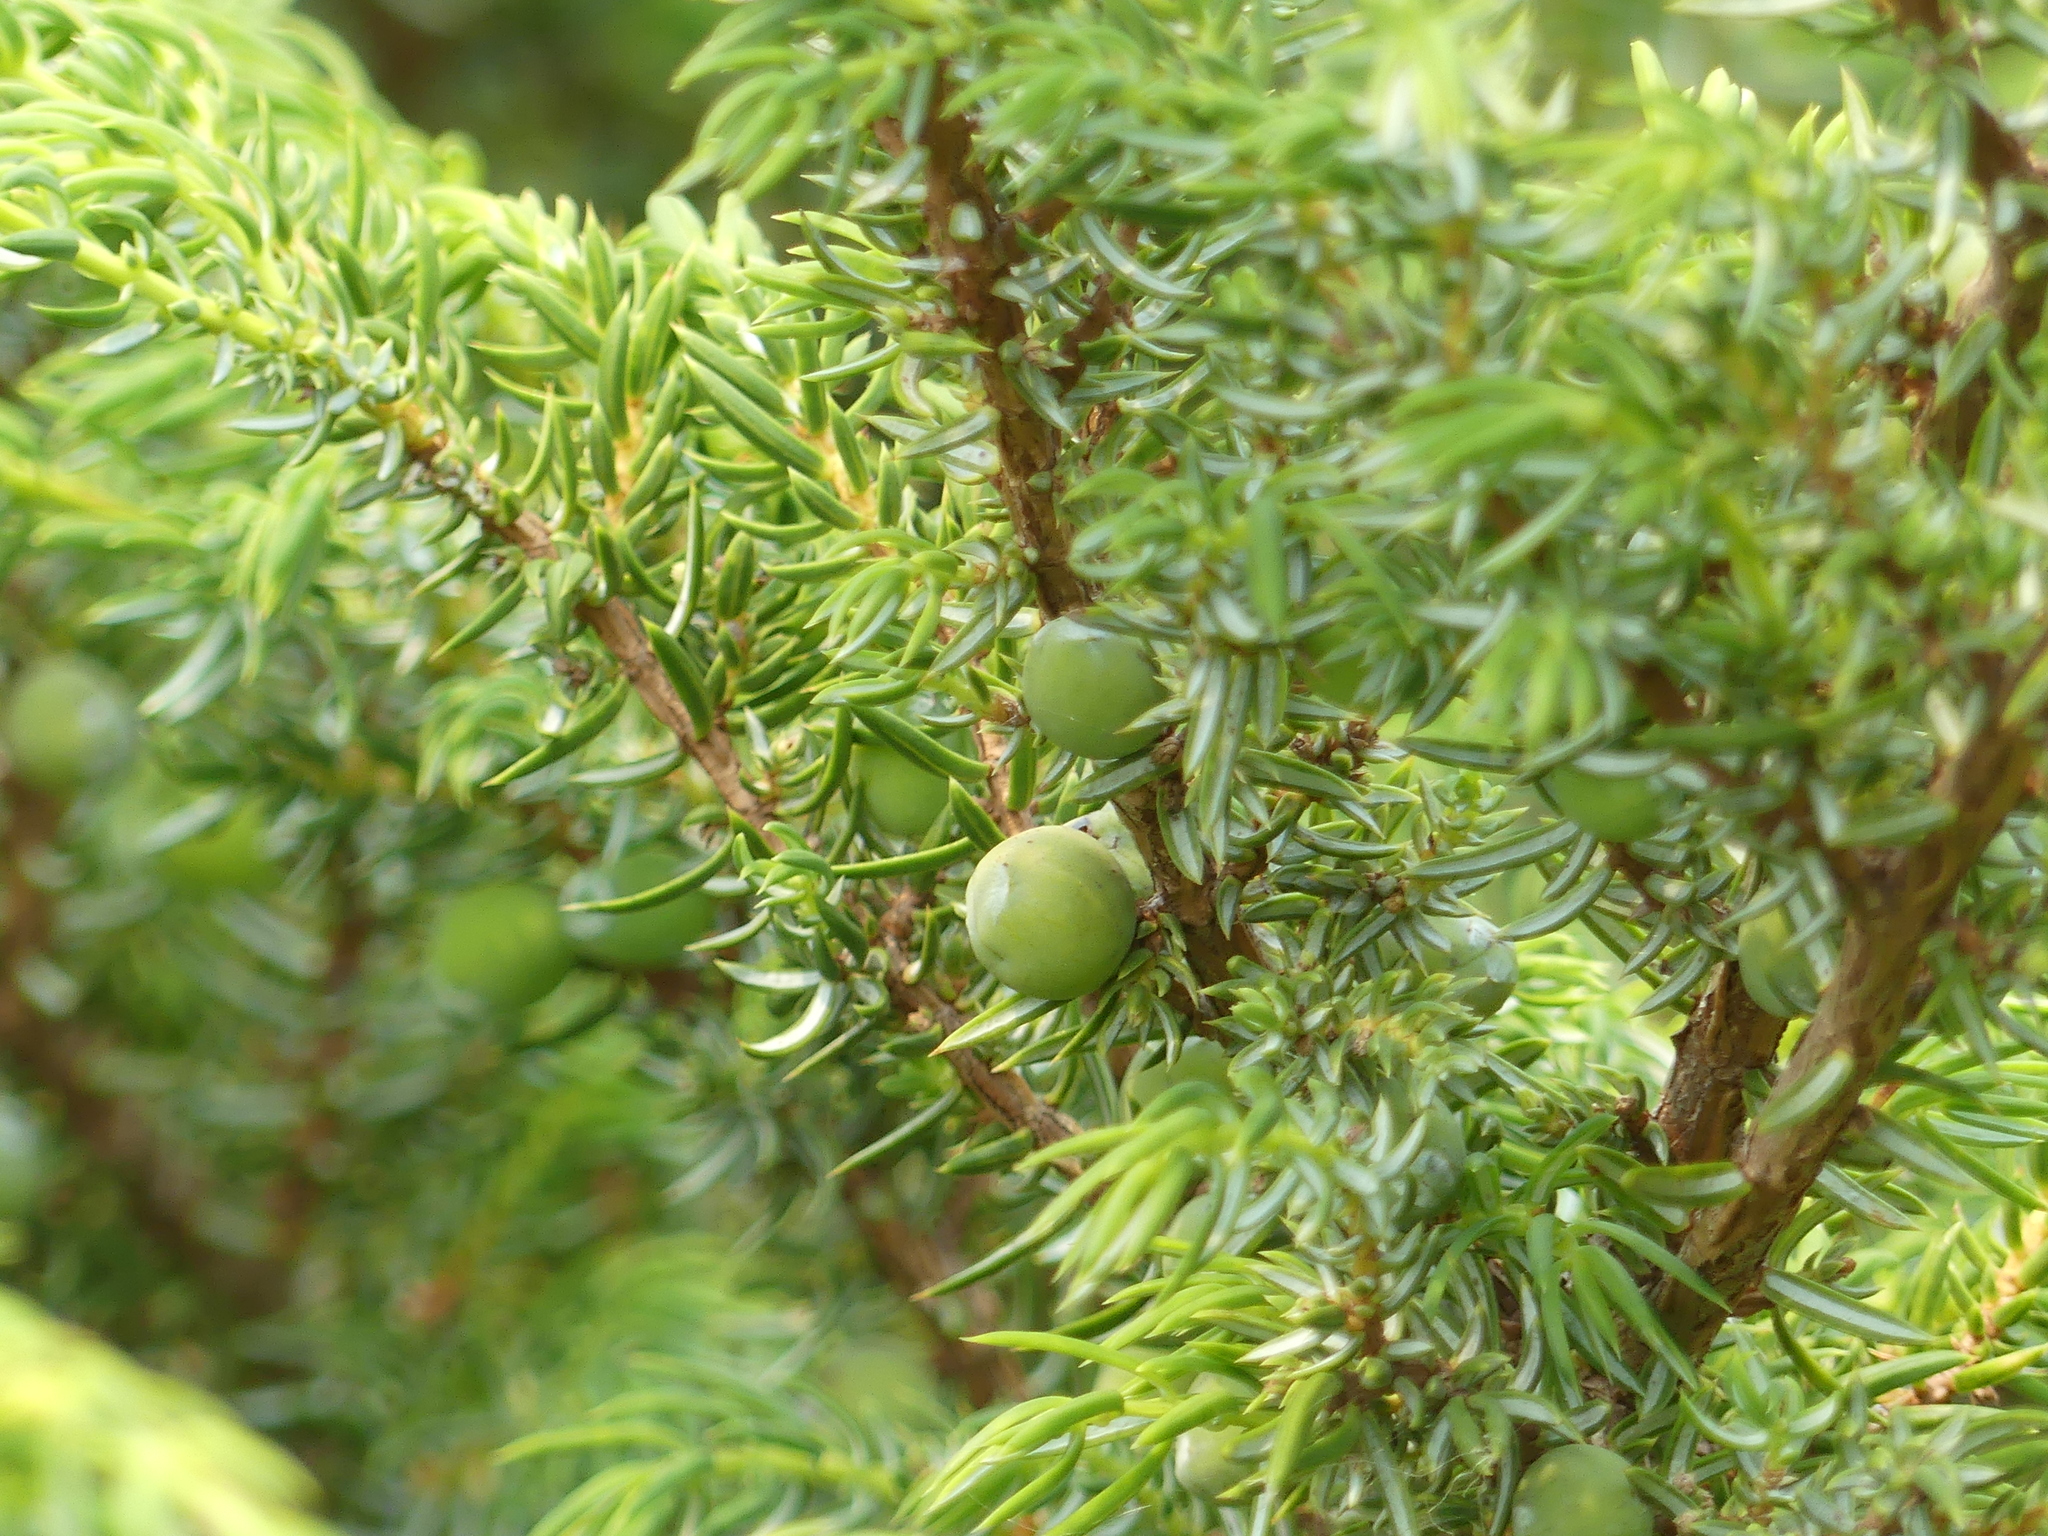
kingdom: Plantae
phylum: Tracheophyta
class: Pinopsida
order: Pinales
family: Cupressaceae
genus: Juniperus
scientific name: Juniperus communis
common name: Common juniper
